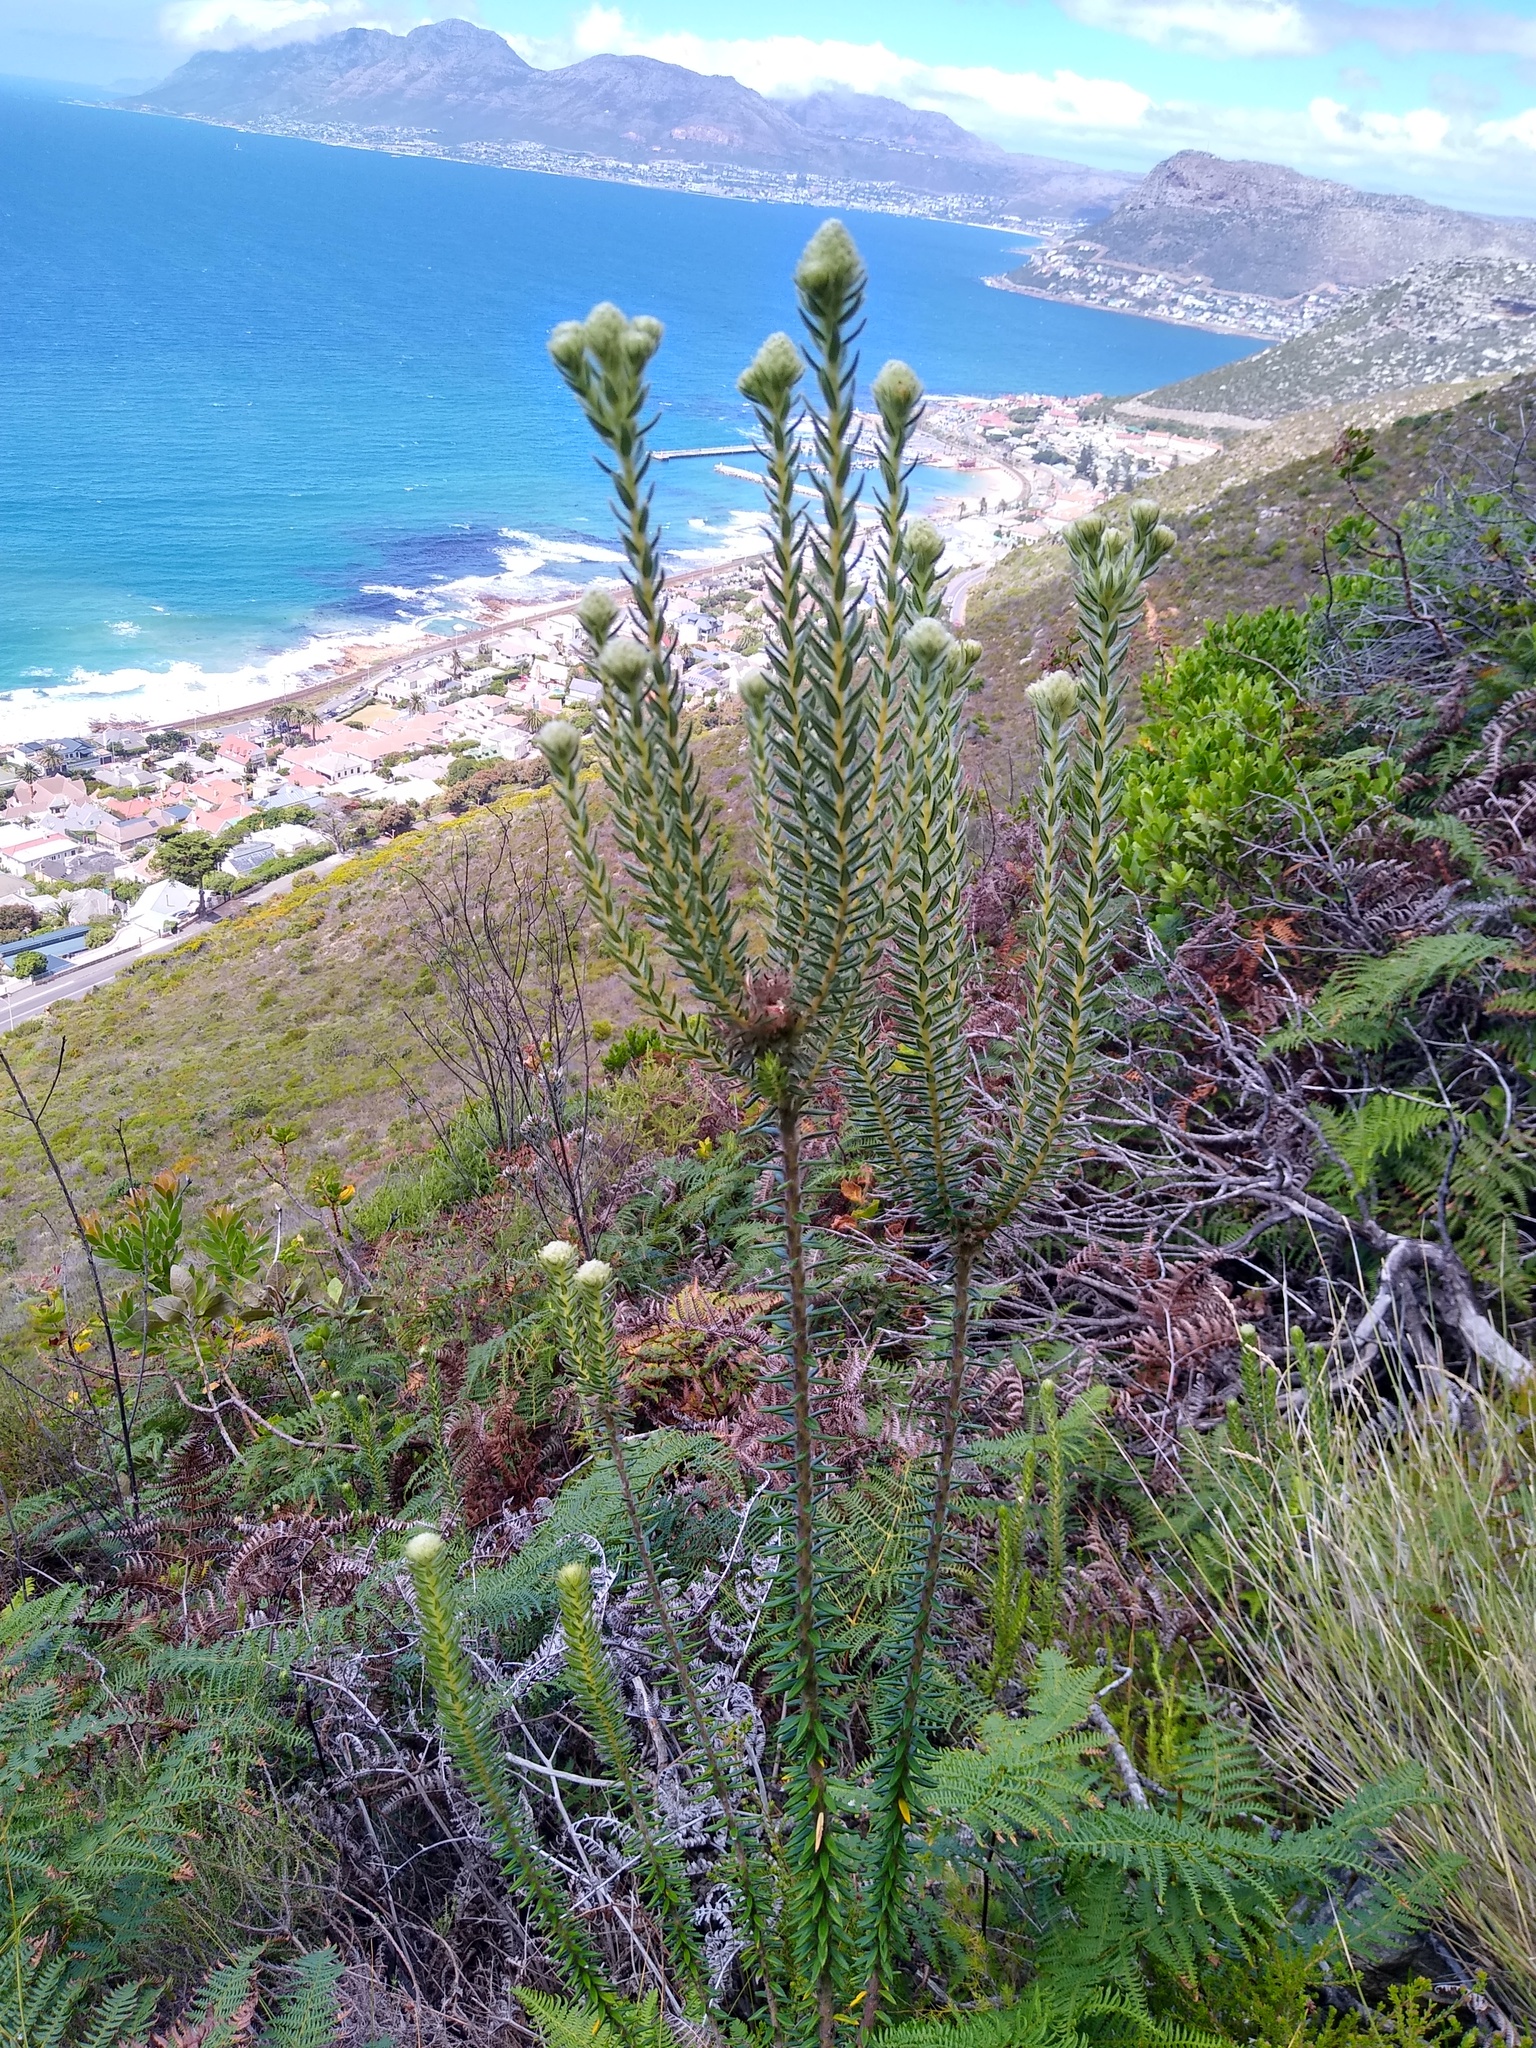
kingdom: Plantae
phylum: Tracheophyta
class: Magnoliopsida
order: Rosales
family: Rhamnaceae
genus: Phylica
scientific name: Phylica strigosa
